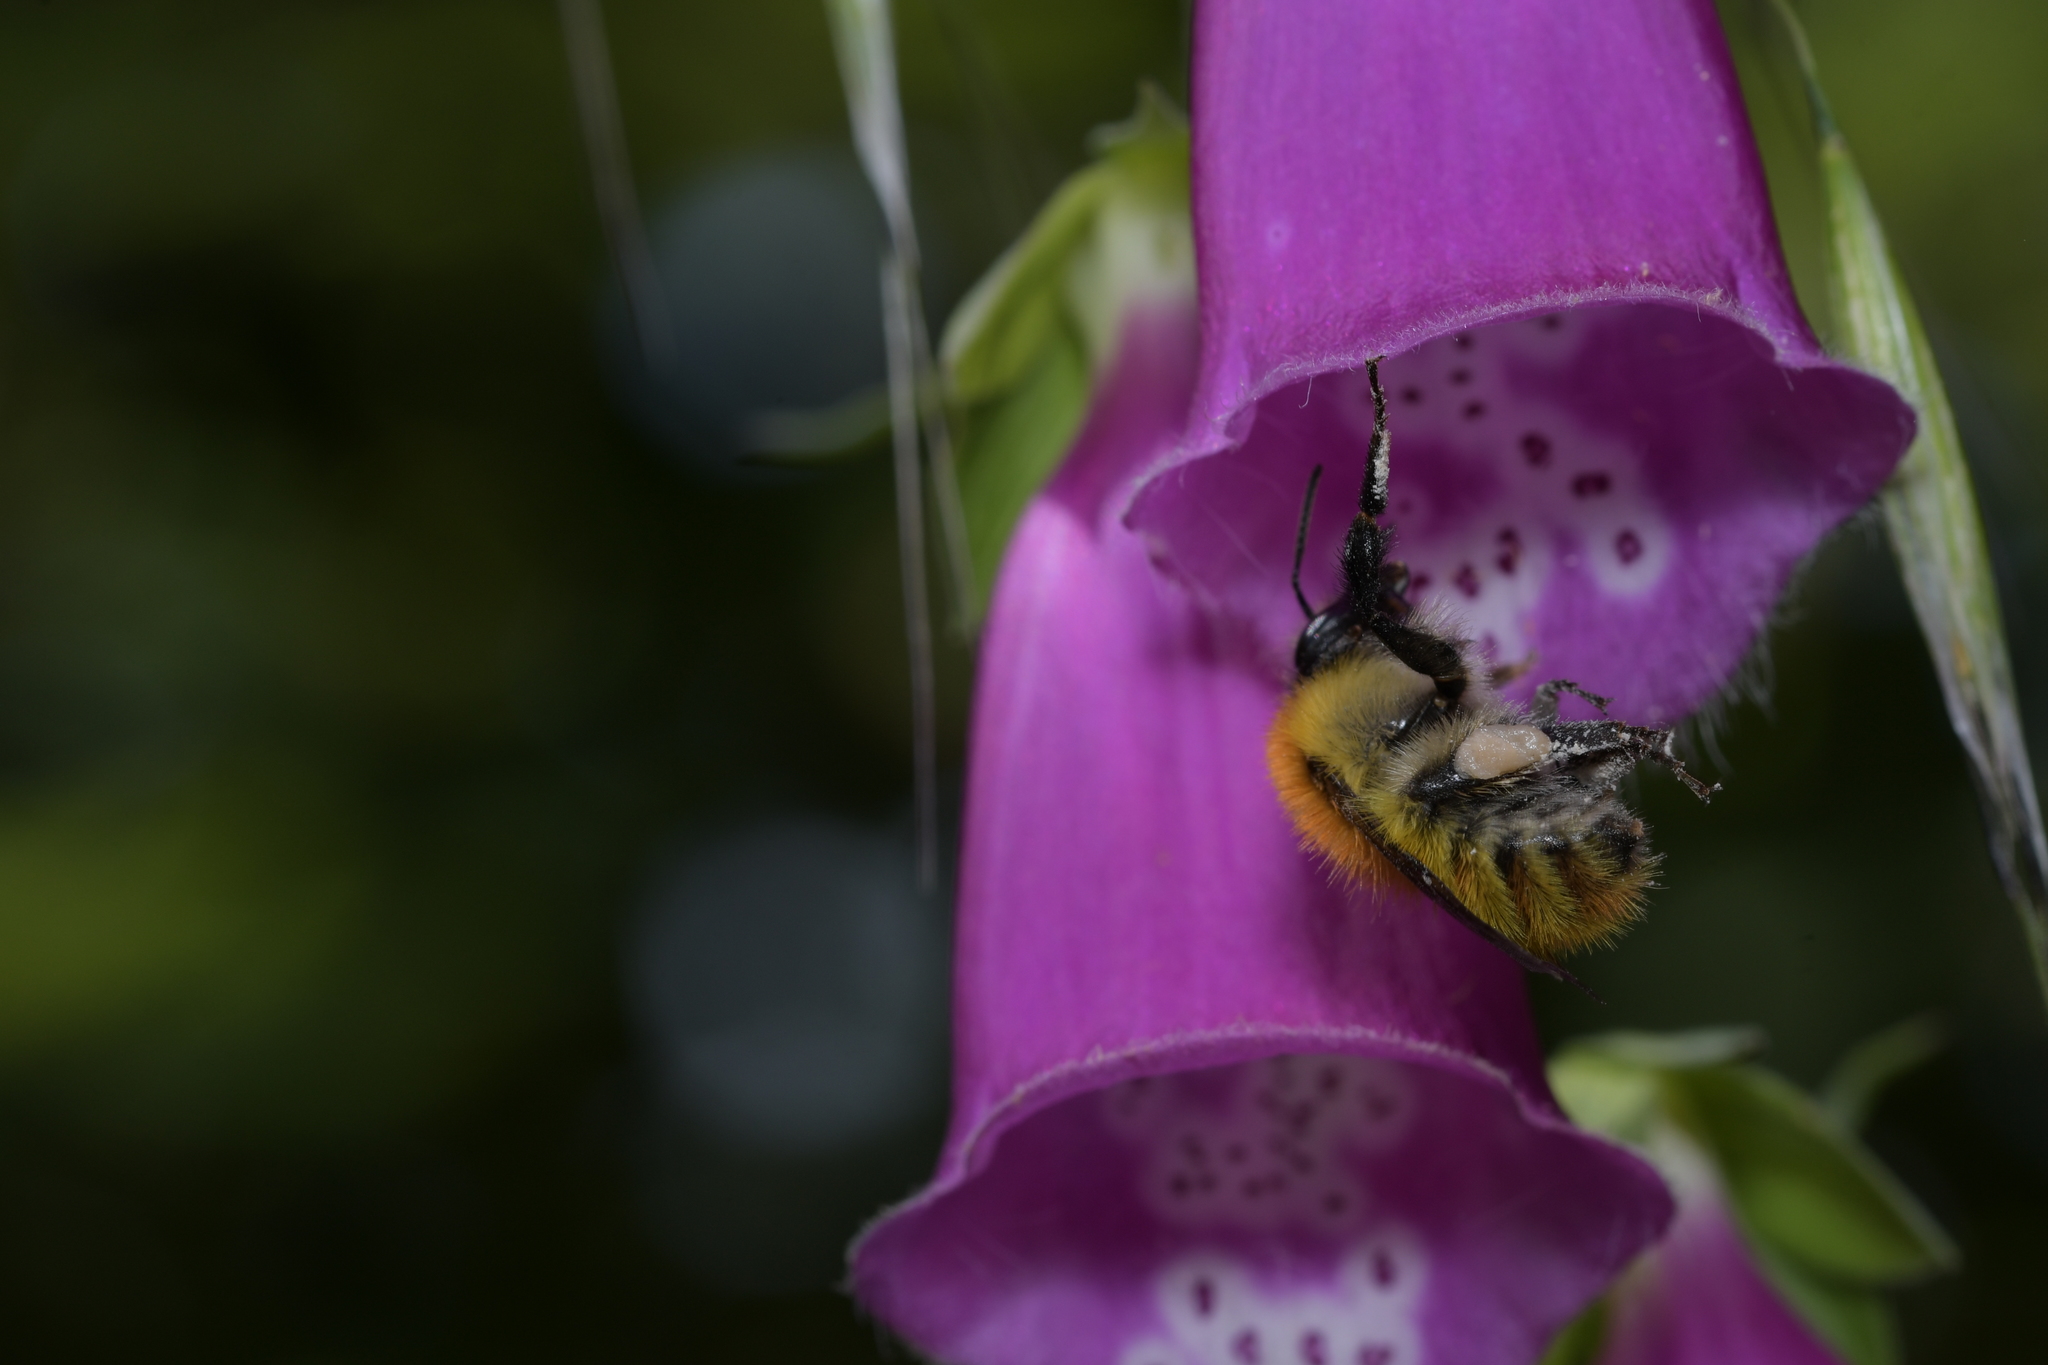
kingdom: Animalia
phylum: Arthropoda
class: Insecta
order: Hymenoptera
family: Apidae
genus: Bombus
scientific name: Bombus pascuorum
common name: Common carder bee
